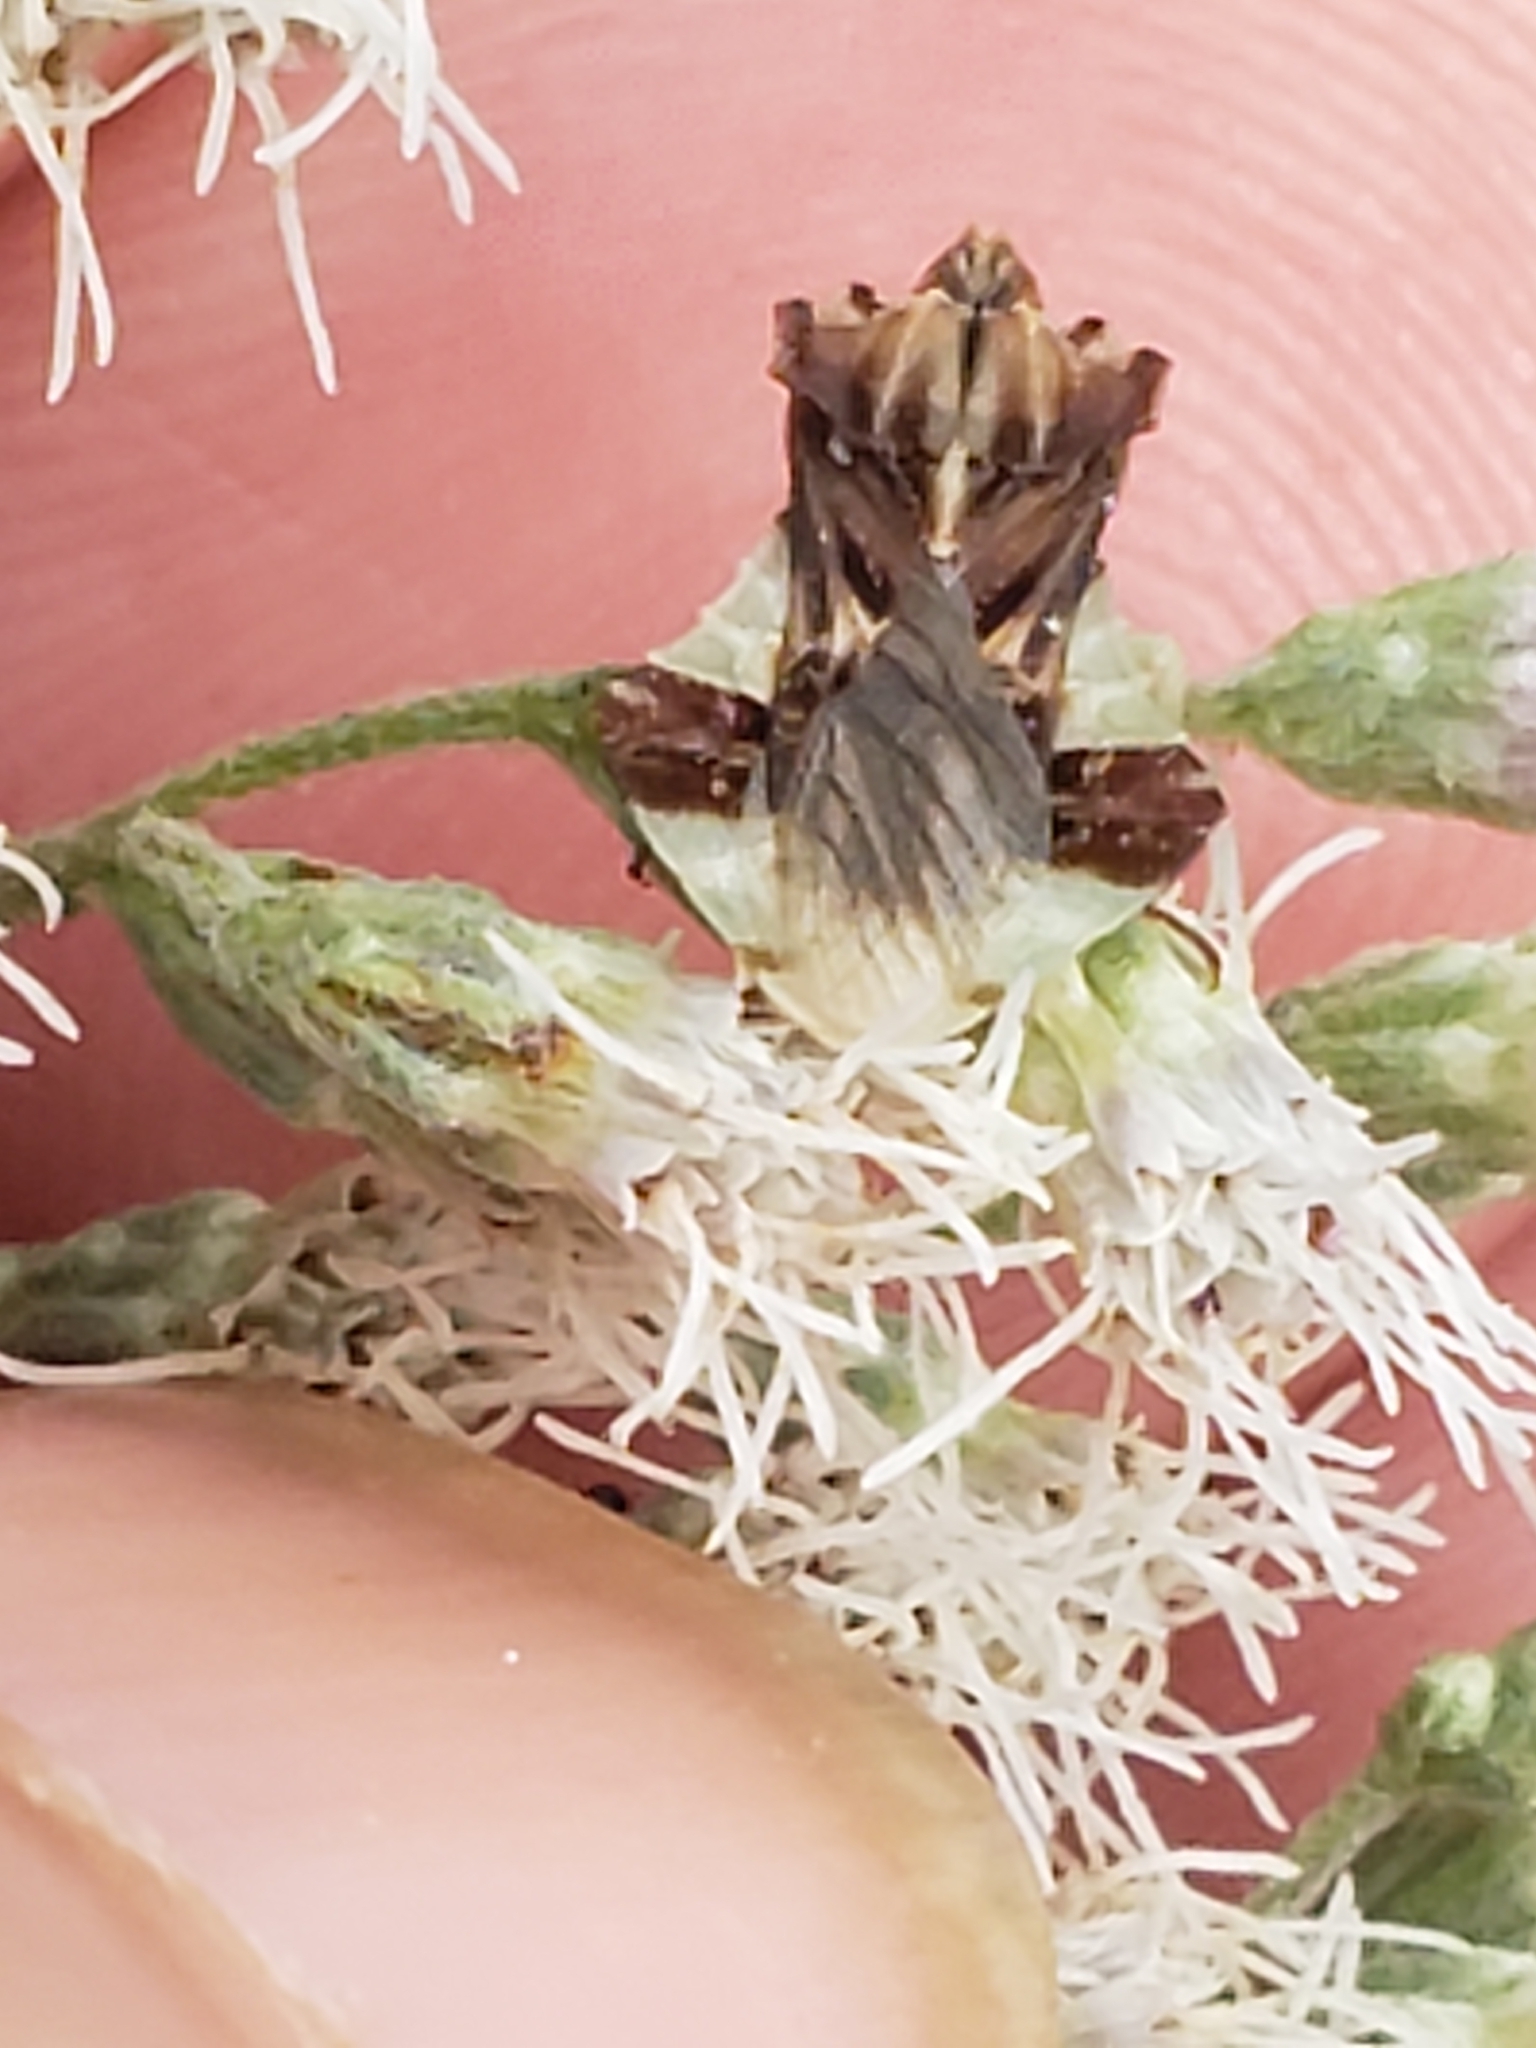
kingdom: Animalia
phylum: Arthropoda
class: Insecta
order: Hemiptera
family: Reduviidae
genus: Phymata
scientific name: Phymata fasciata
